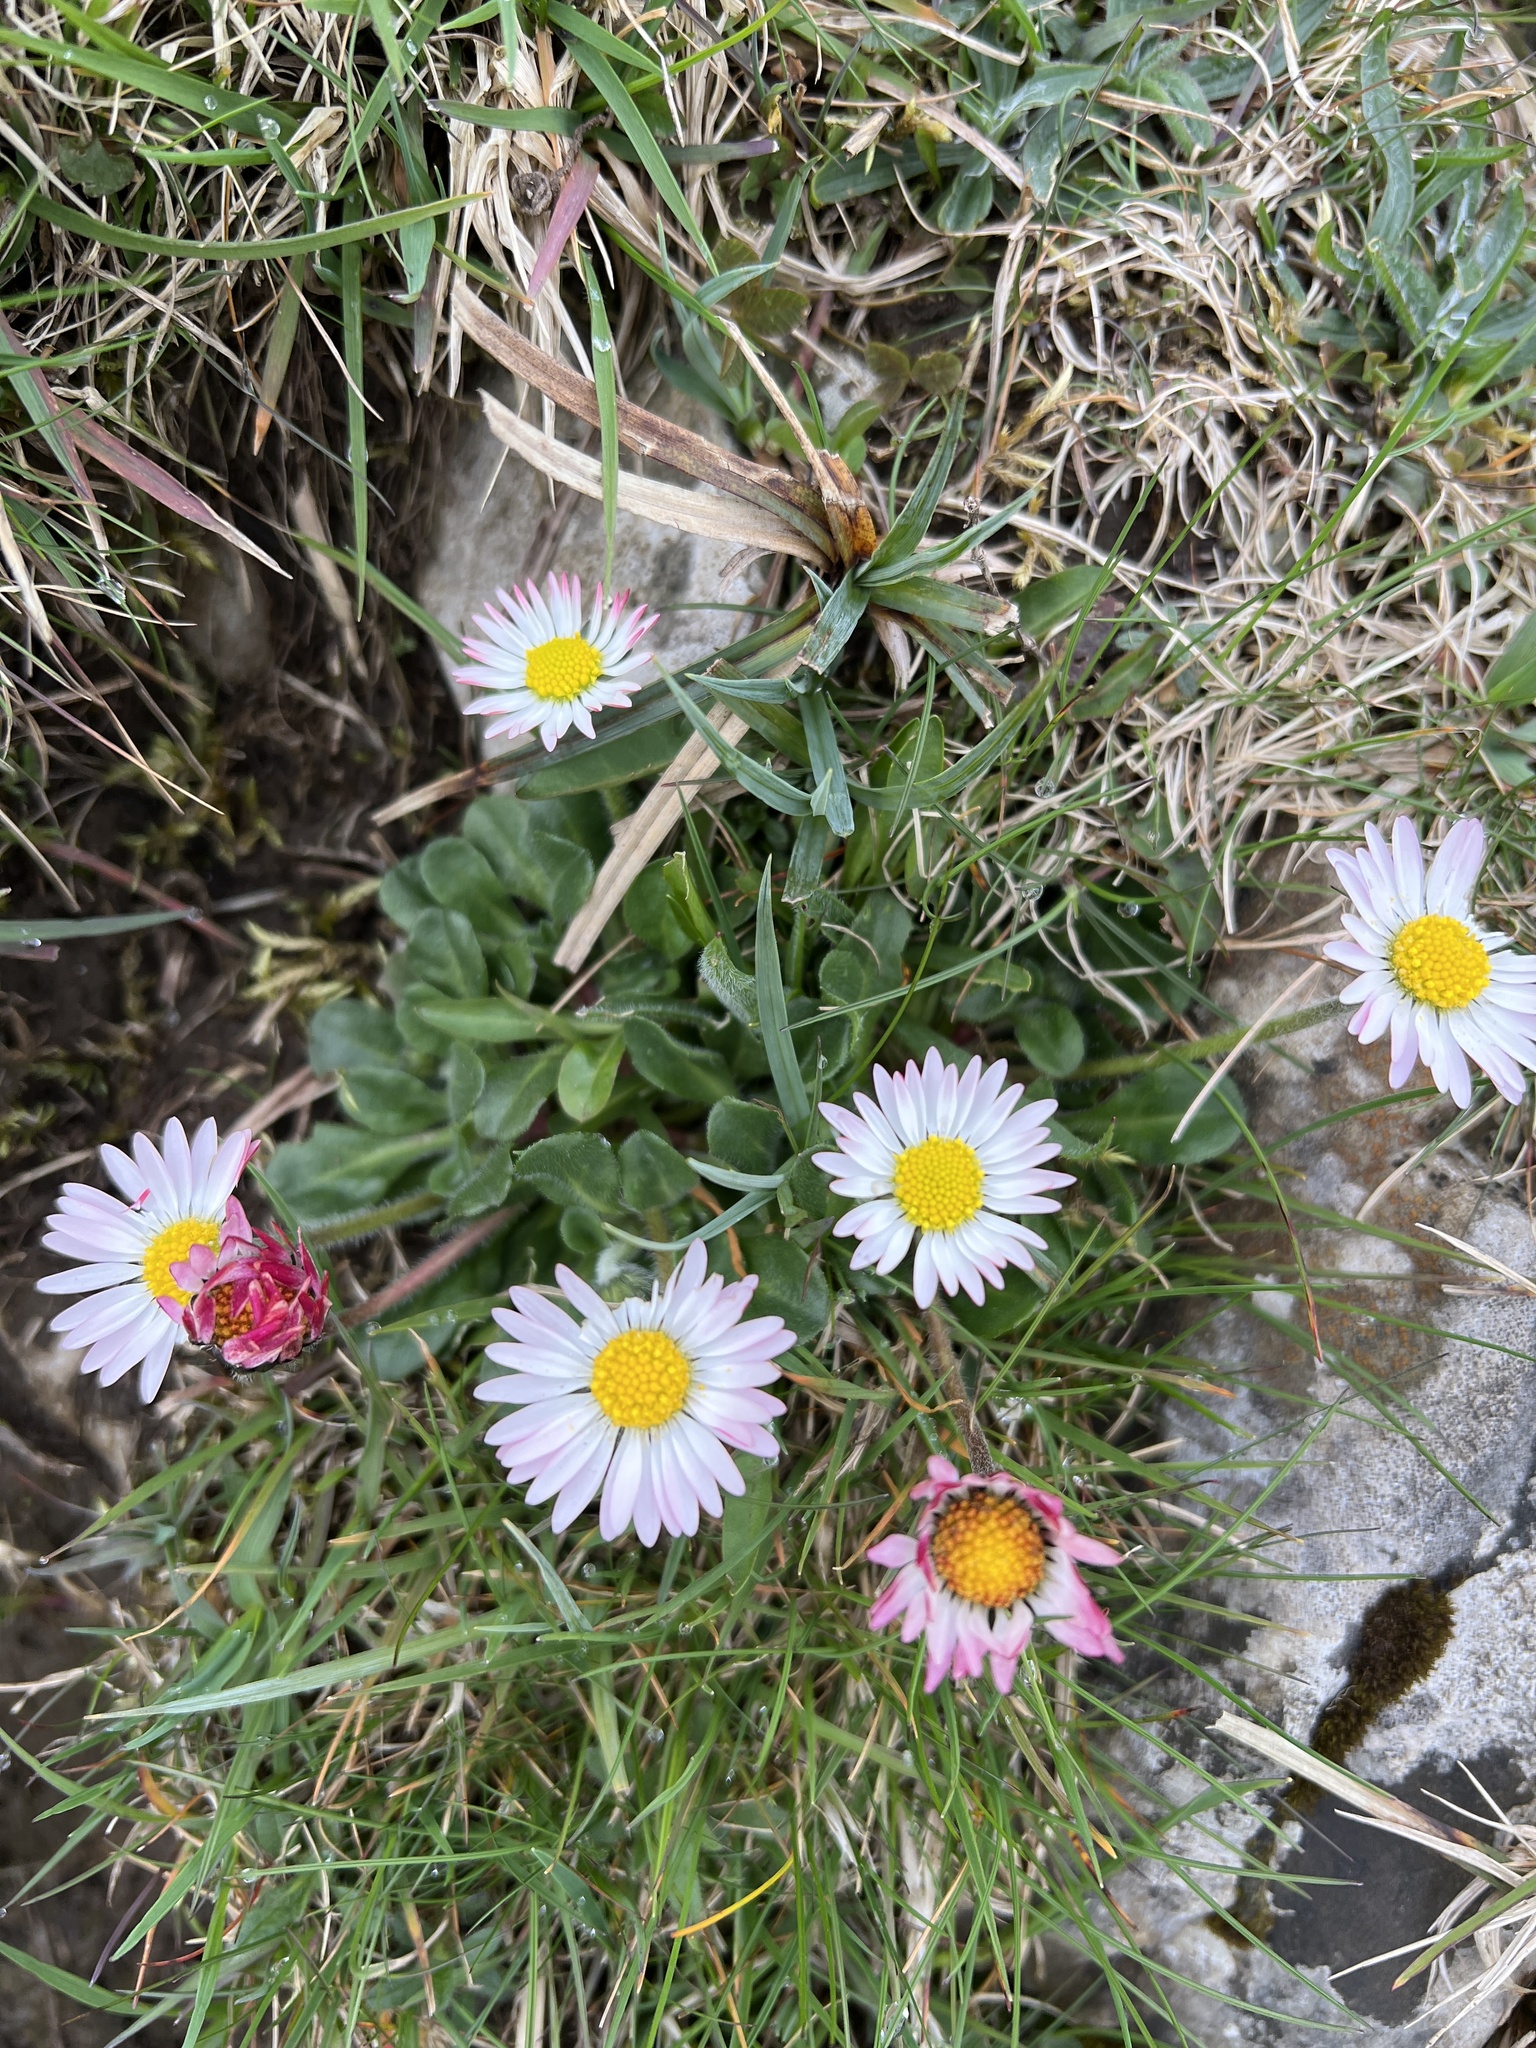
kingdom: Plantae
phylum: Tracheophyta
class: Magnoliopsida
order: Asterales
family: Asteraceae
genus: Bellis
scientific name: Bellis perennis
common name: Lawndaisy
